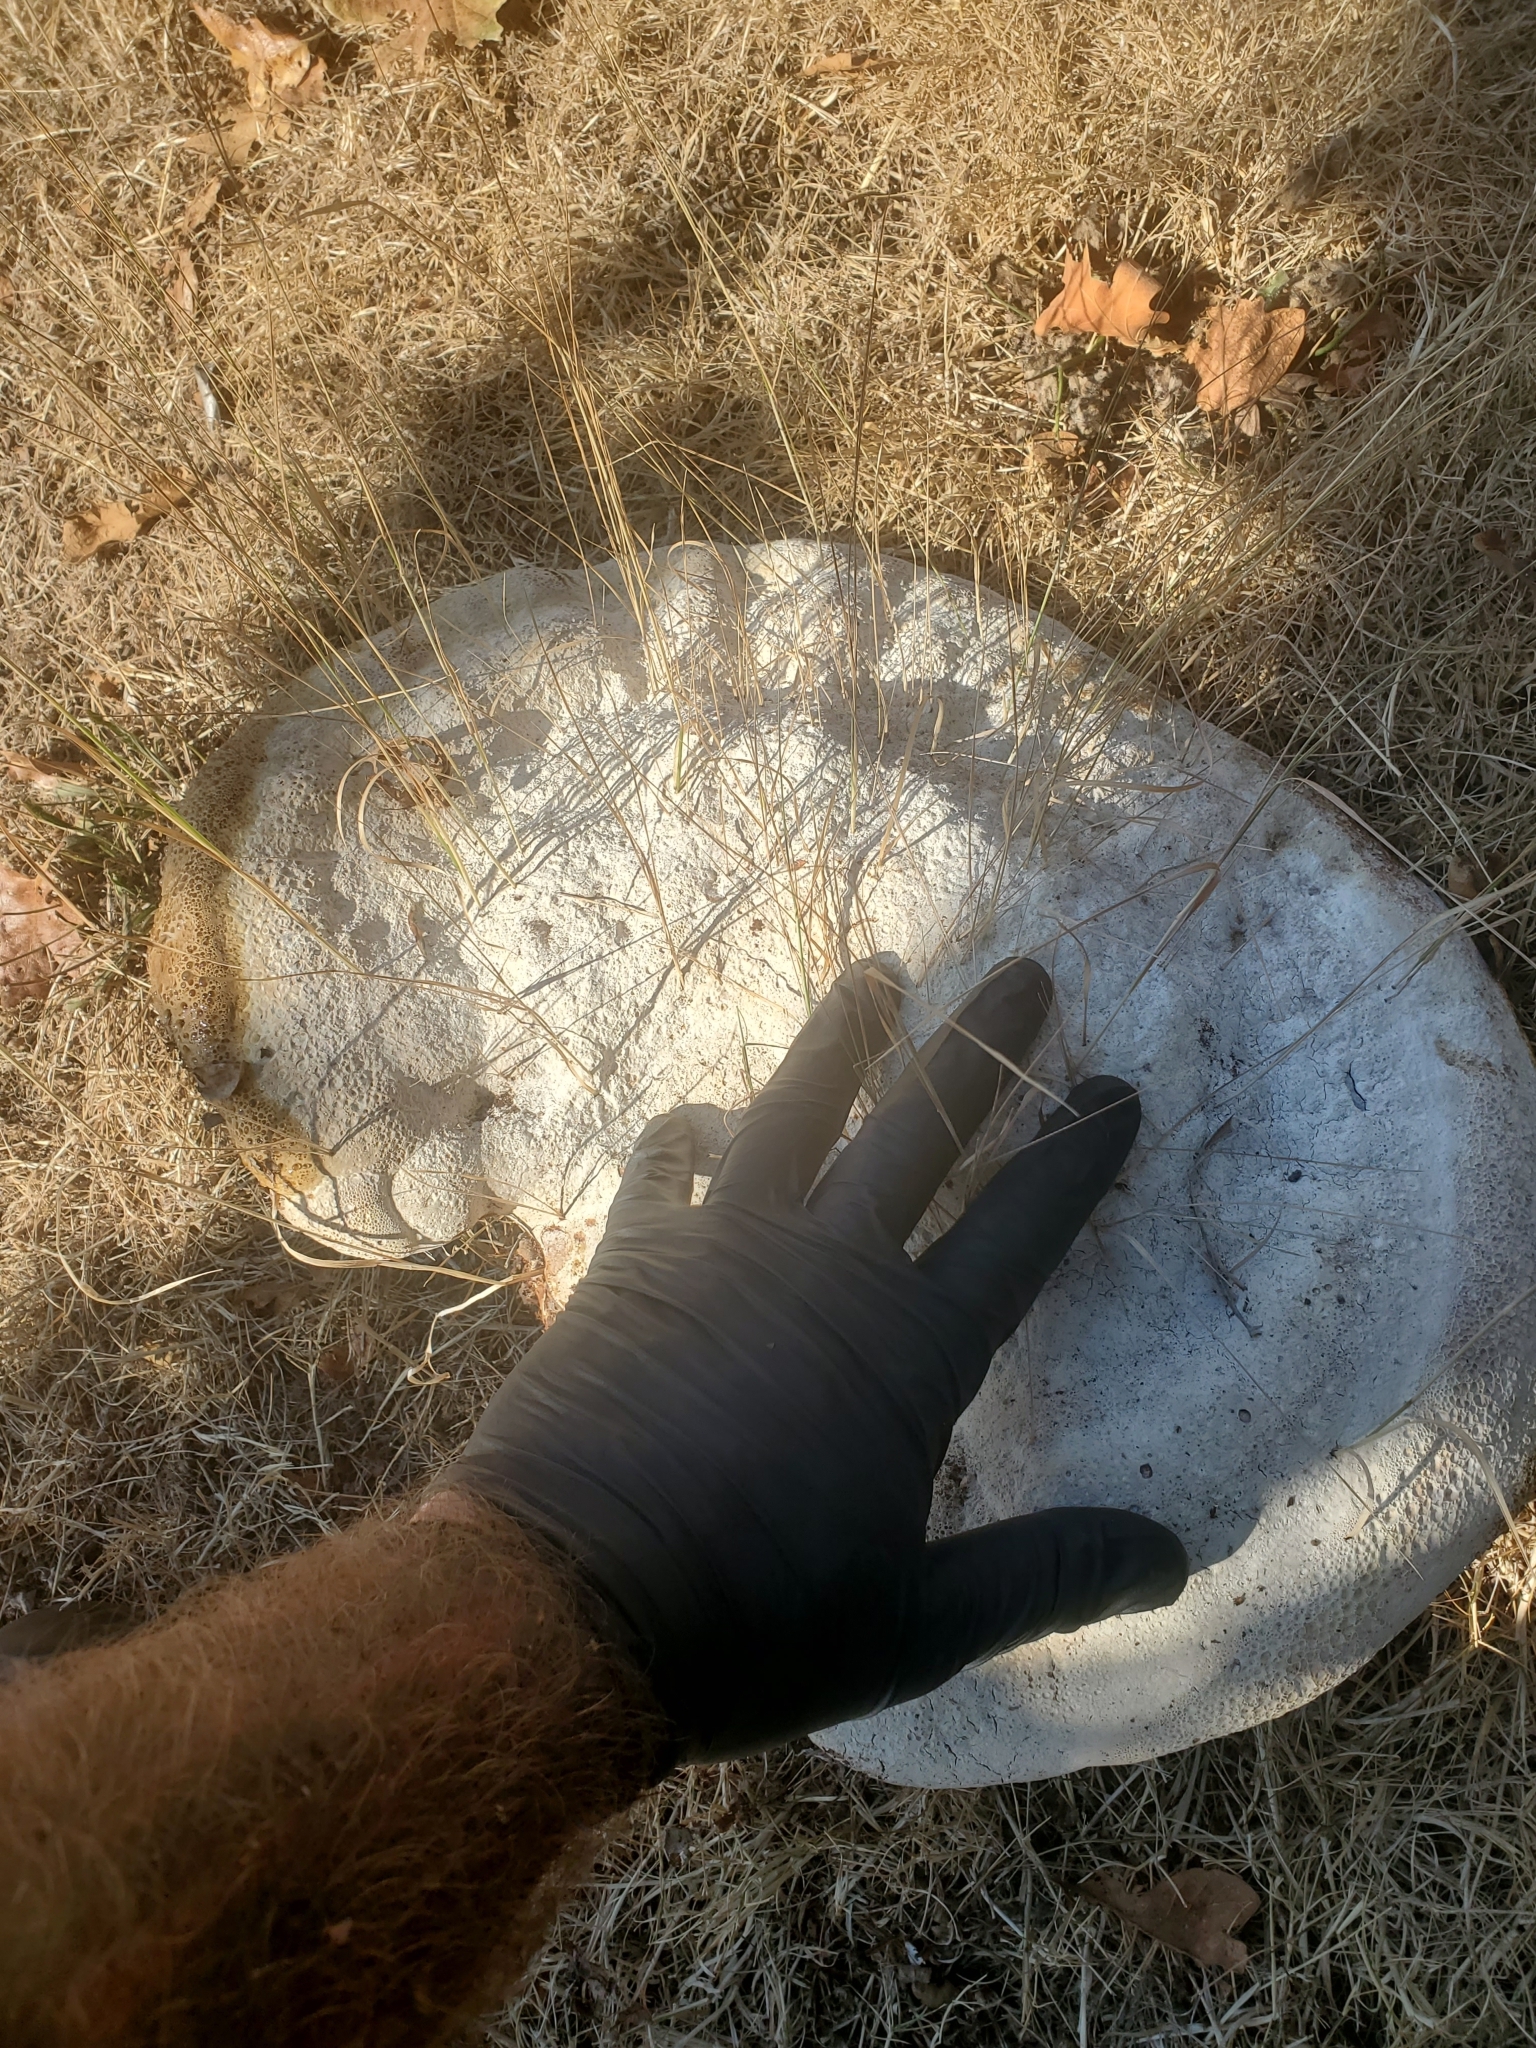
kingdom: Fungi
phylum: Basidiomycota
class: Agaricomycetes
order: Hymenochaetales
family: Hymenochaetaceae
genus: Pseudoinonotus
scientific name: Pseudoinonotus dryadeus
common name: Oak bracket
